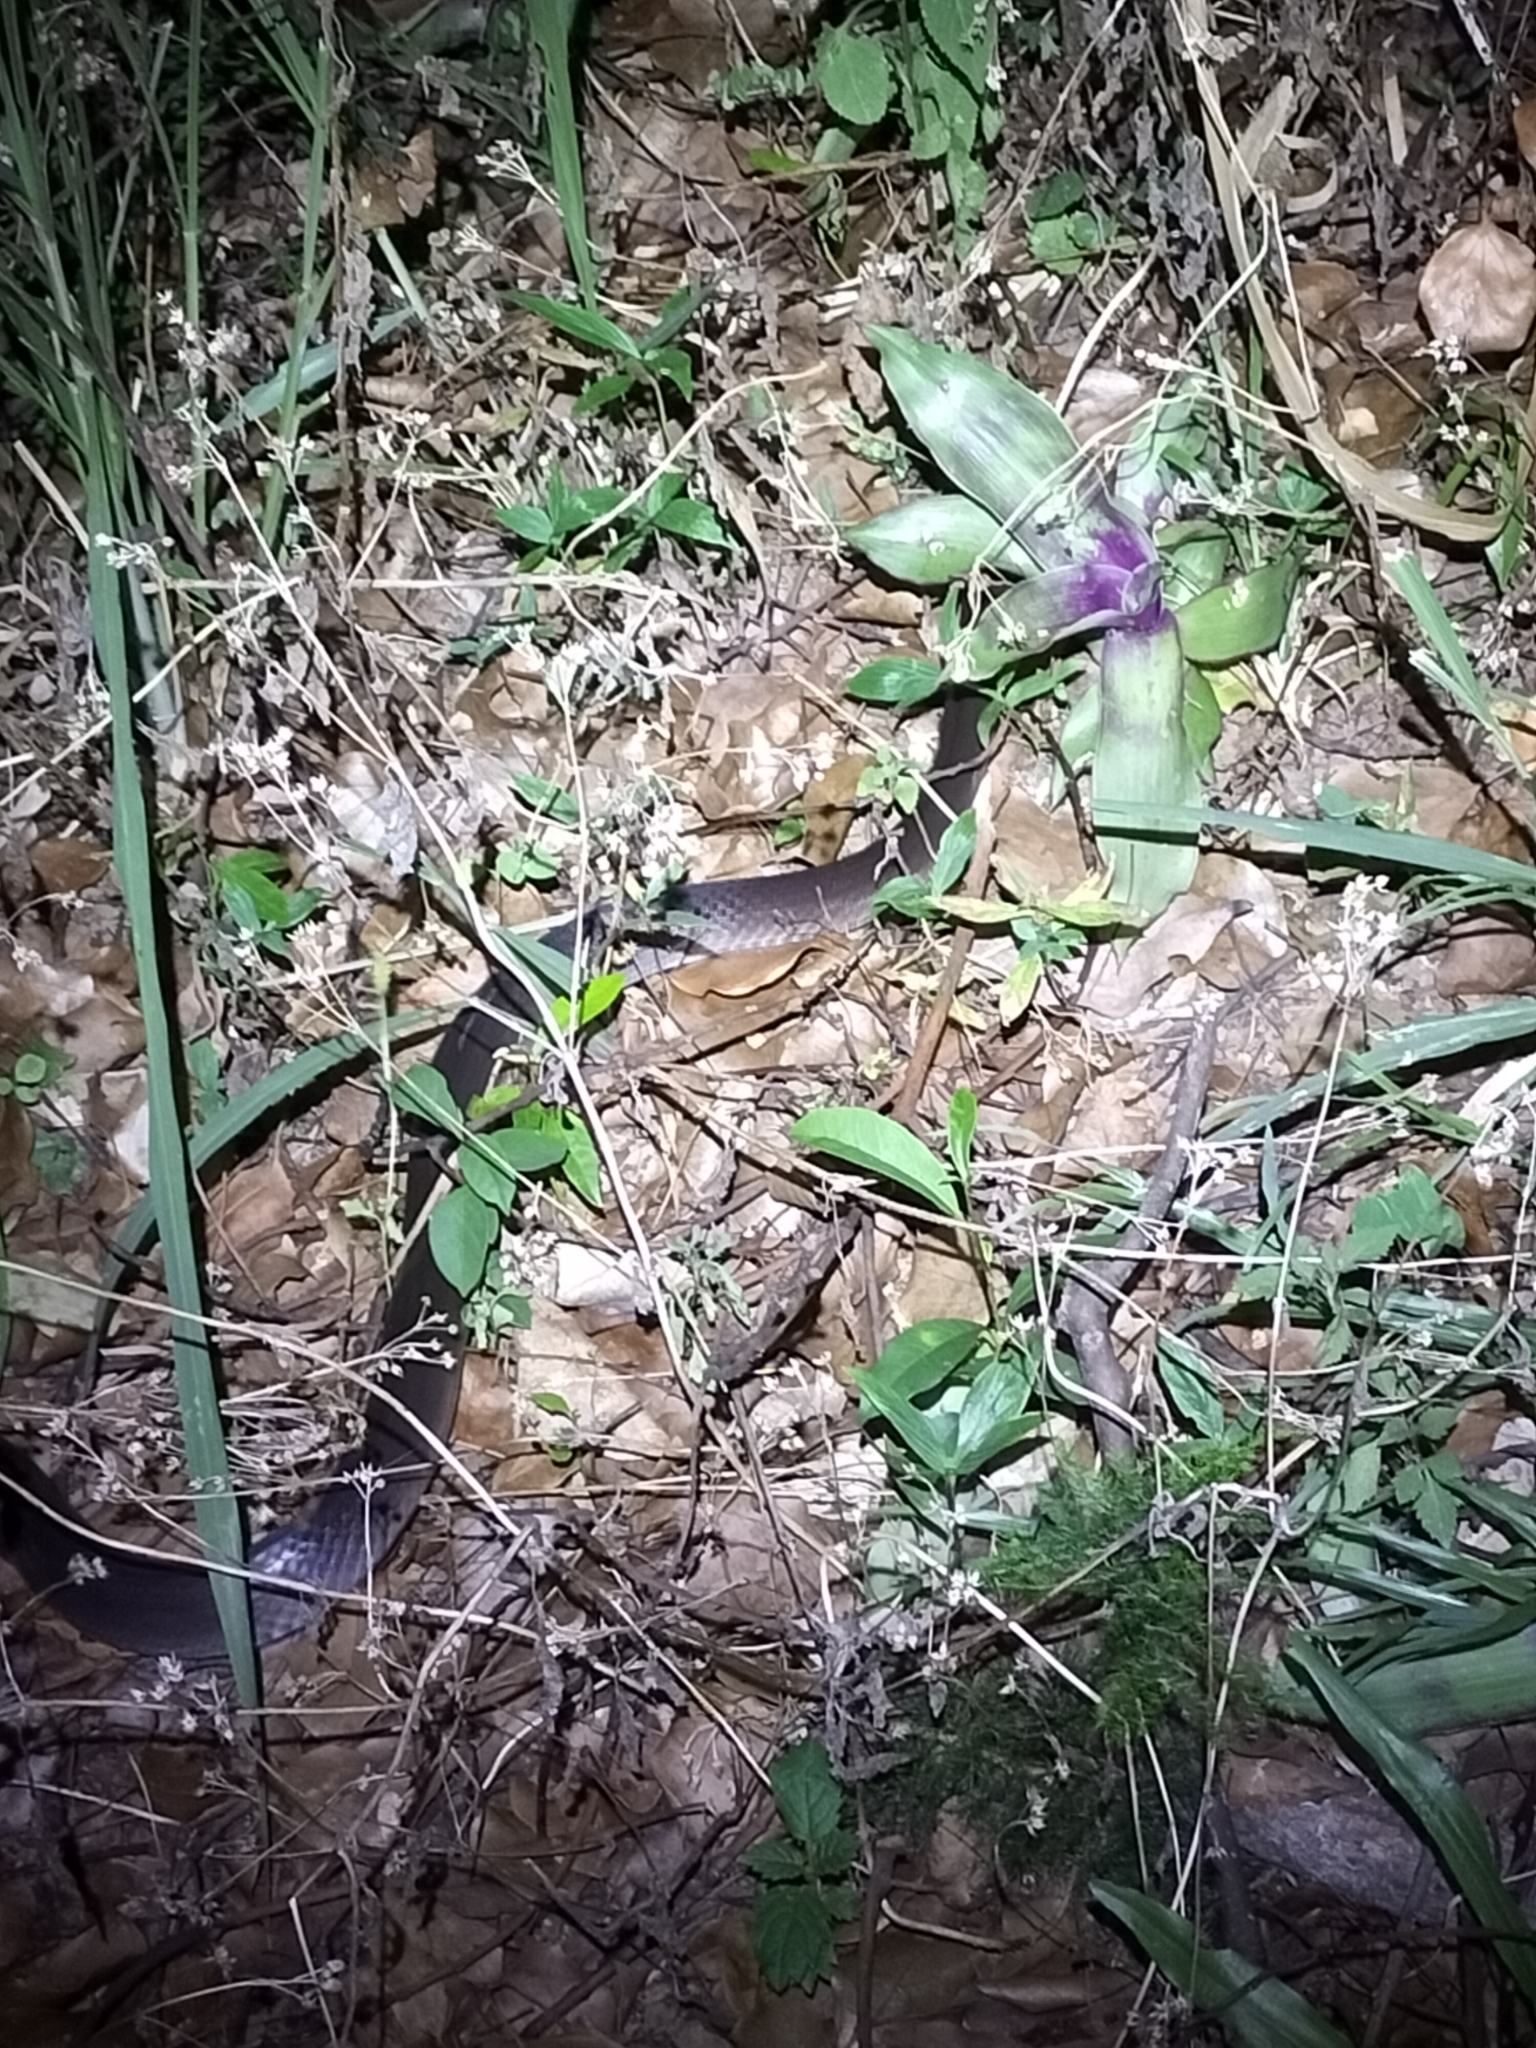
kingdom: Animalia
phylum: Chordata
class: Squamata
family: Colubridae
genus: Stegonotus
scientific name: Stegonotus australis
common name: Australian groundsnake
